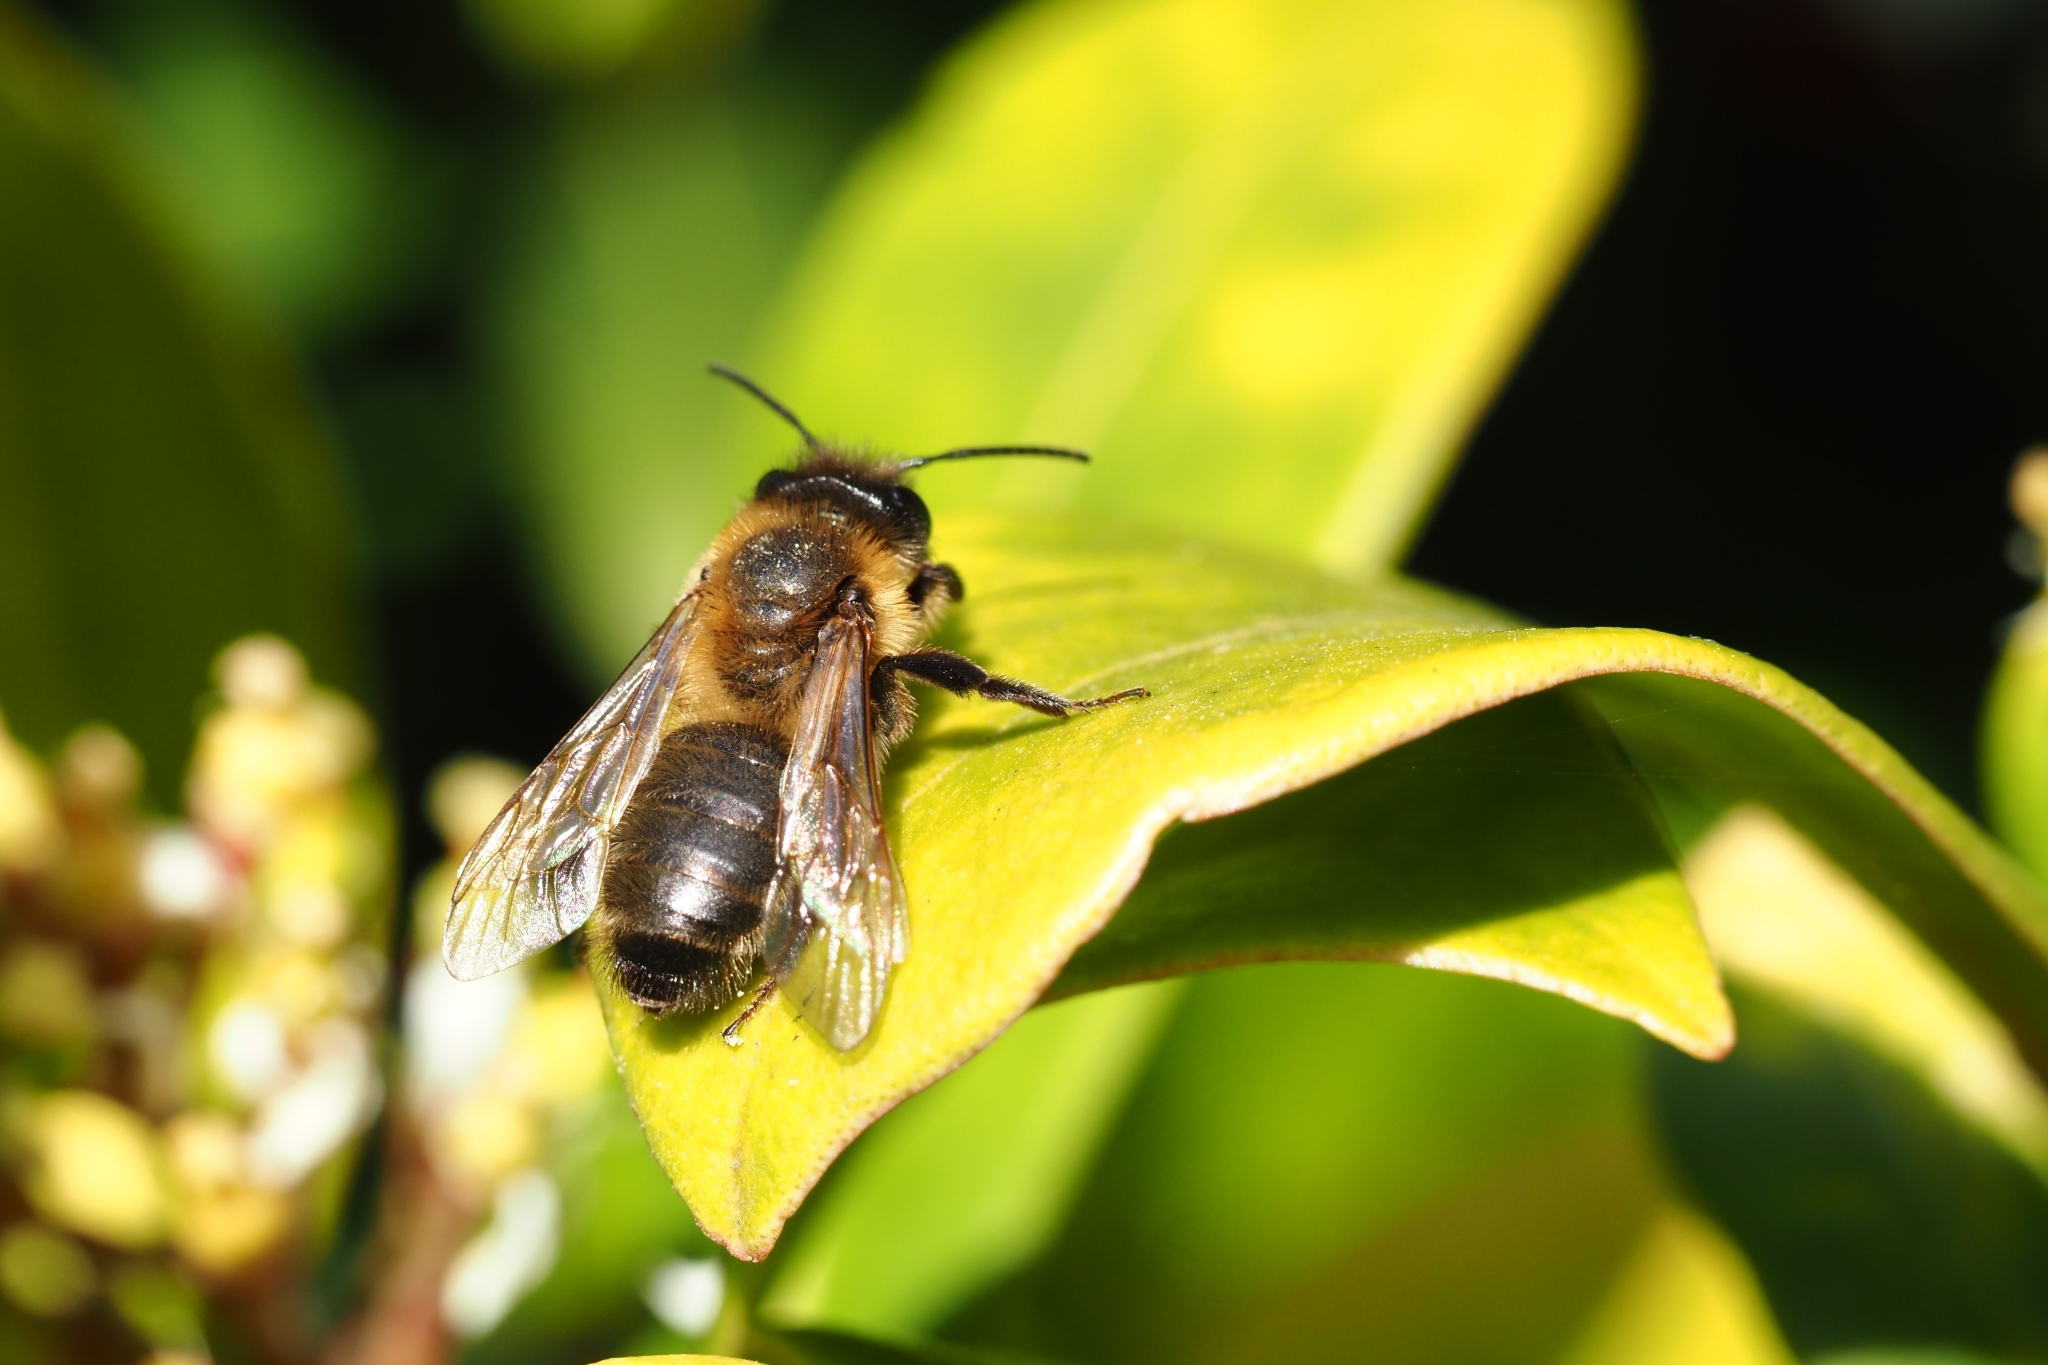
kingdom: Animalia
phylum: Arthropoda
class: Insecta
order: Hymenoptera
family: Andrenidae
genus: Andrena
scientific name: Andrena carantonica
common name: Chocolate mining bee
